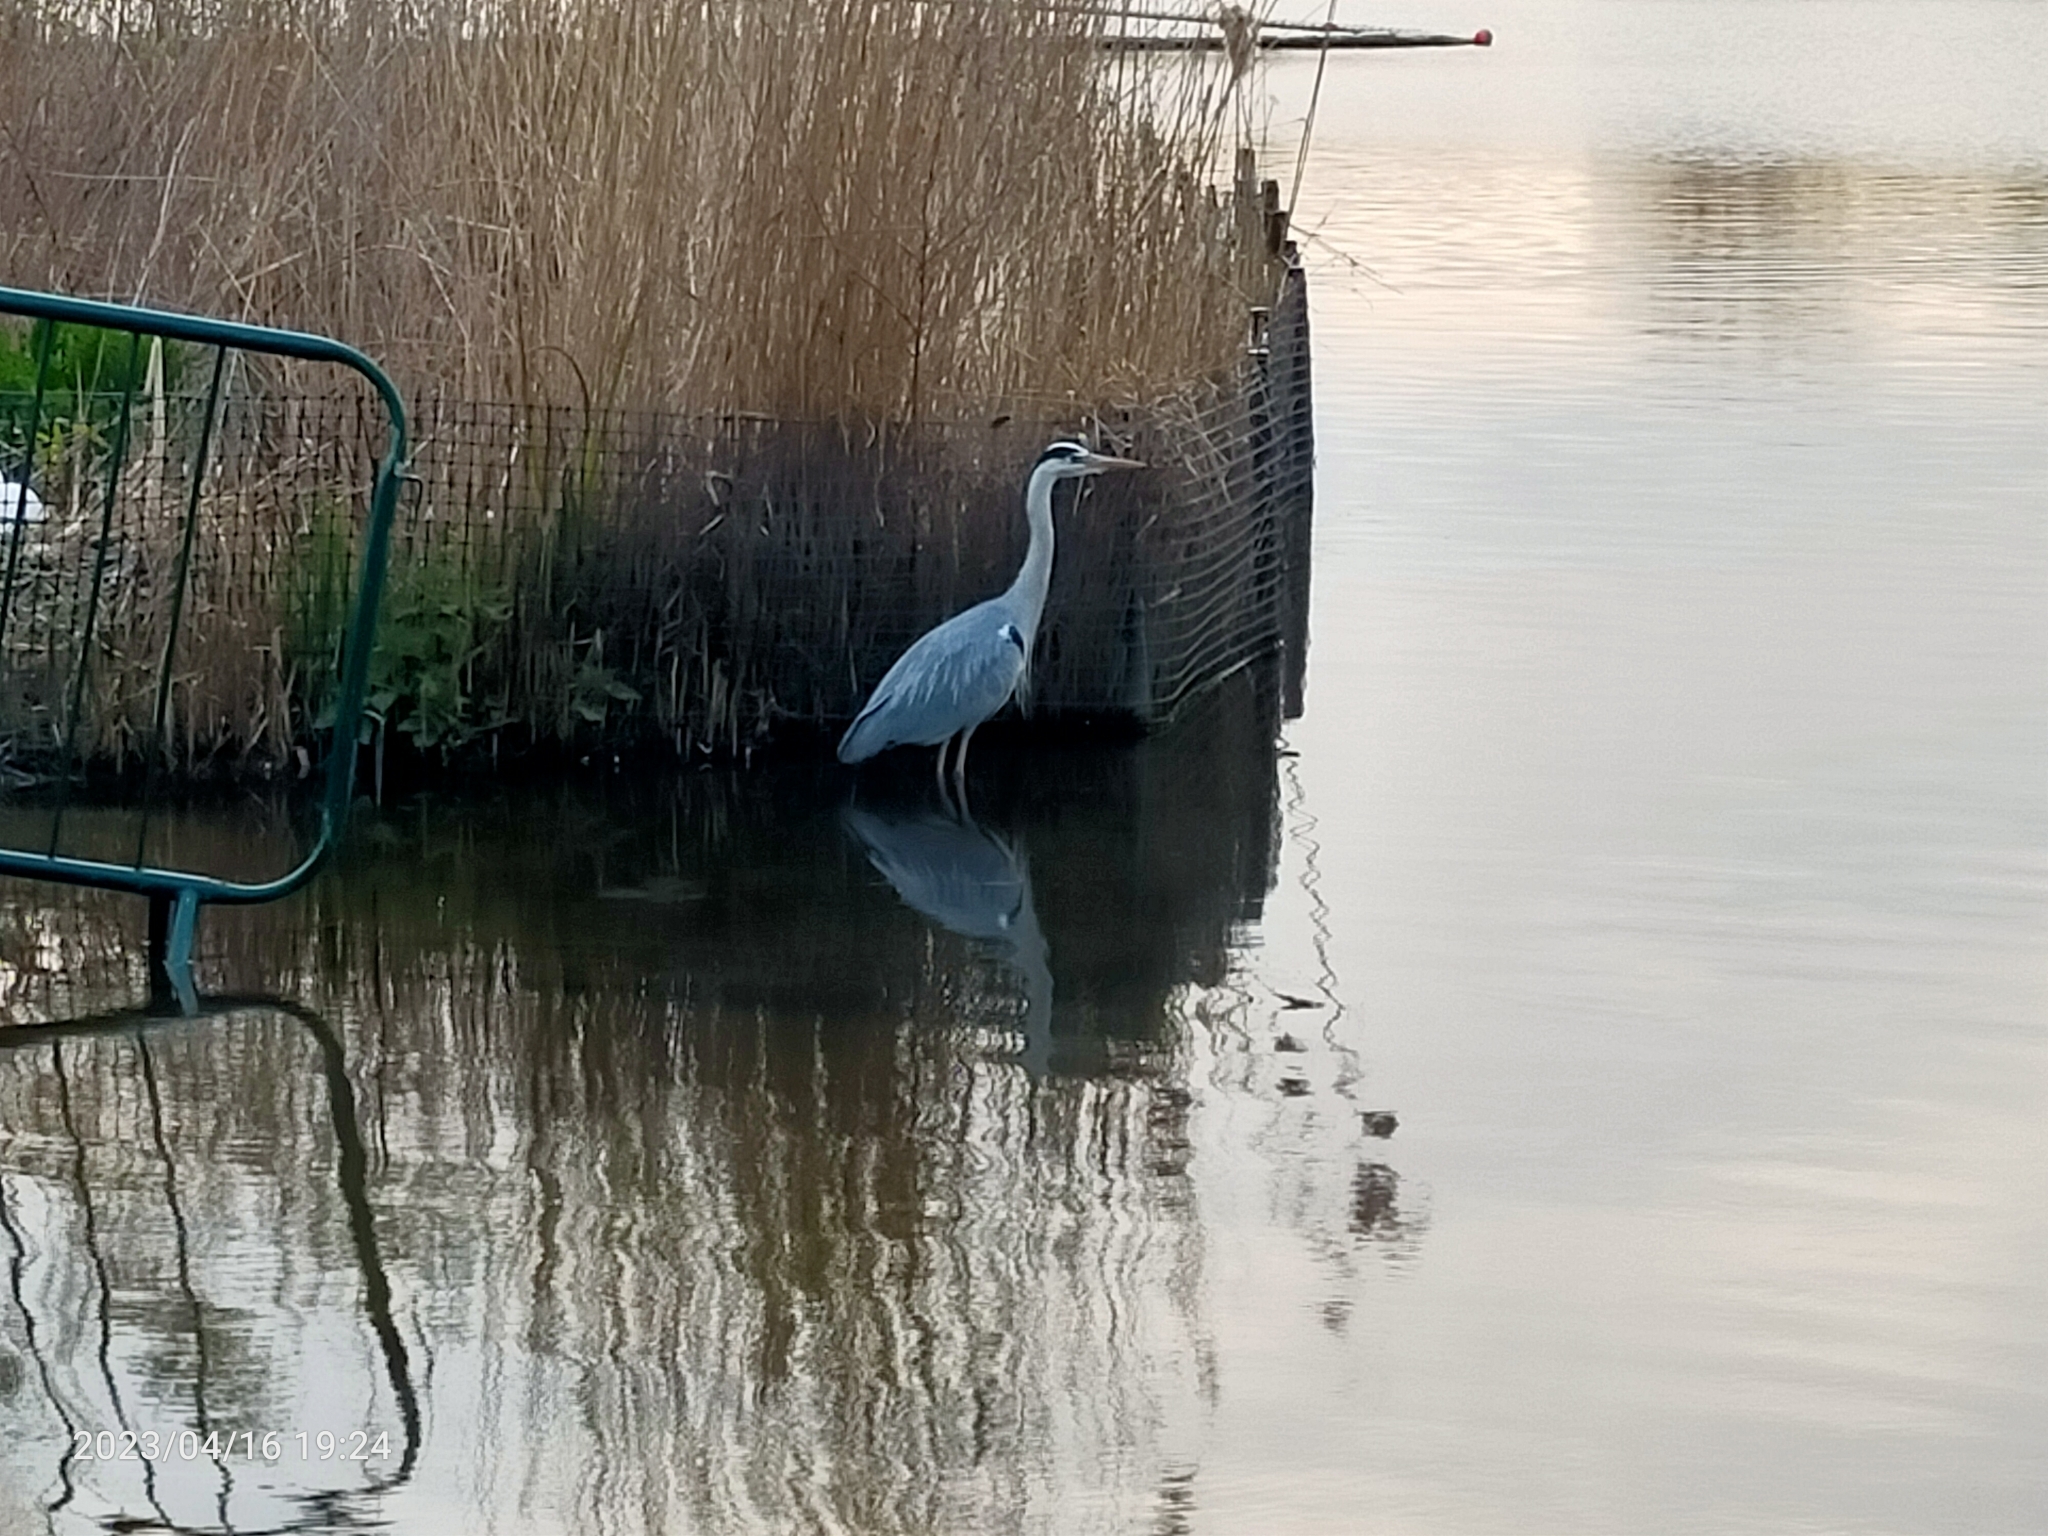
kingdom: Animalia
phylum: Chordata
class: Aves
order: Pelecaniformes
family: Ardeidae
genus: Ardea
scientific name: Ardea cinerea
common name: Grey heron
